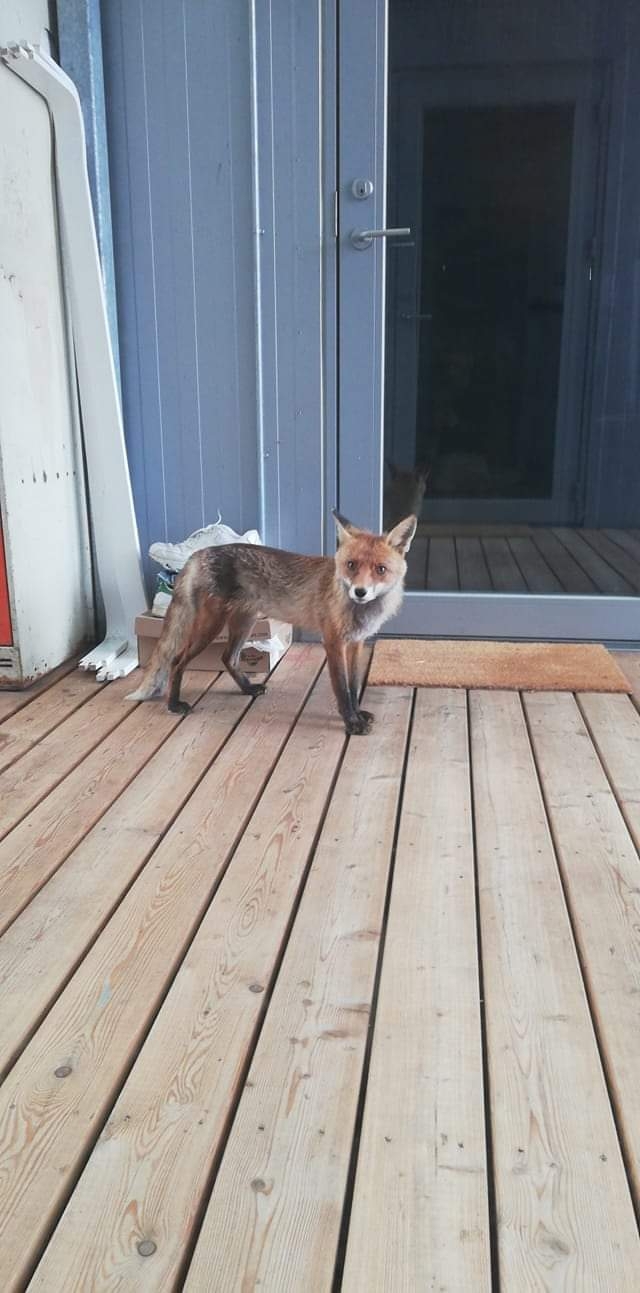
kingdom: Animalia
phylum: Chordata
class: Mammalia
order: Carnivora
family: Canidae
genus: Vulpes
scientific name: Vulpes vulpes
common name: Red fox
